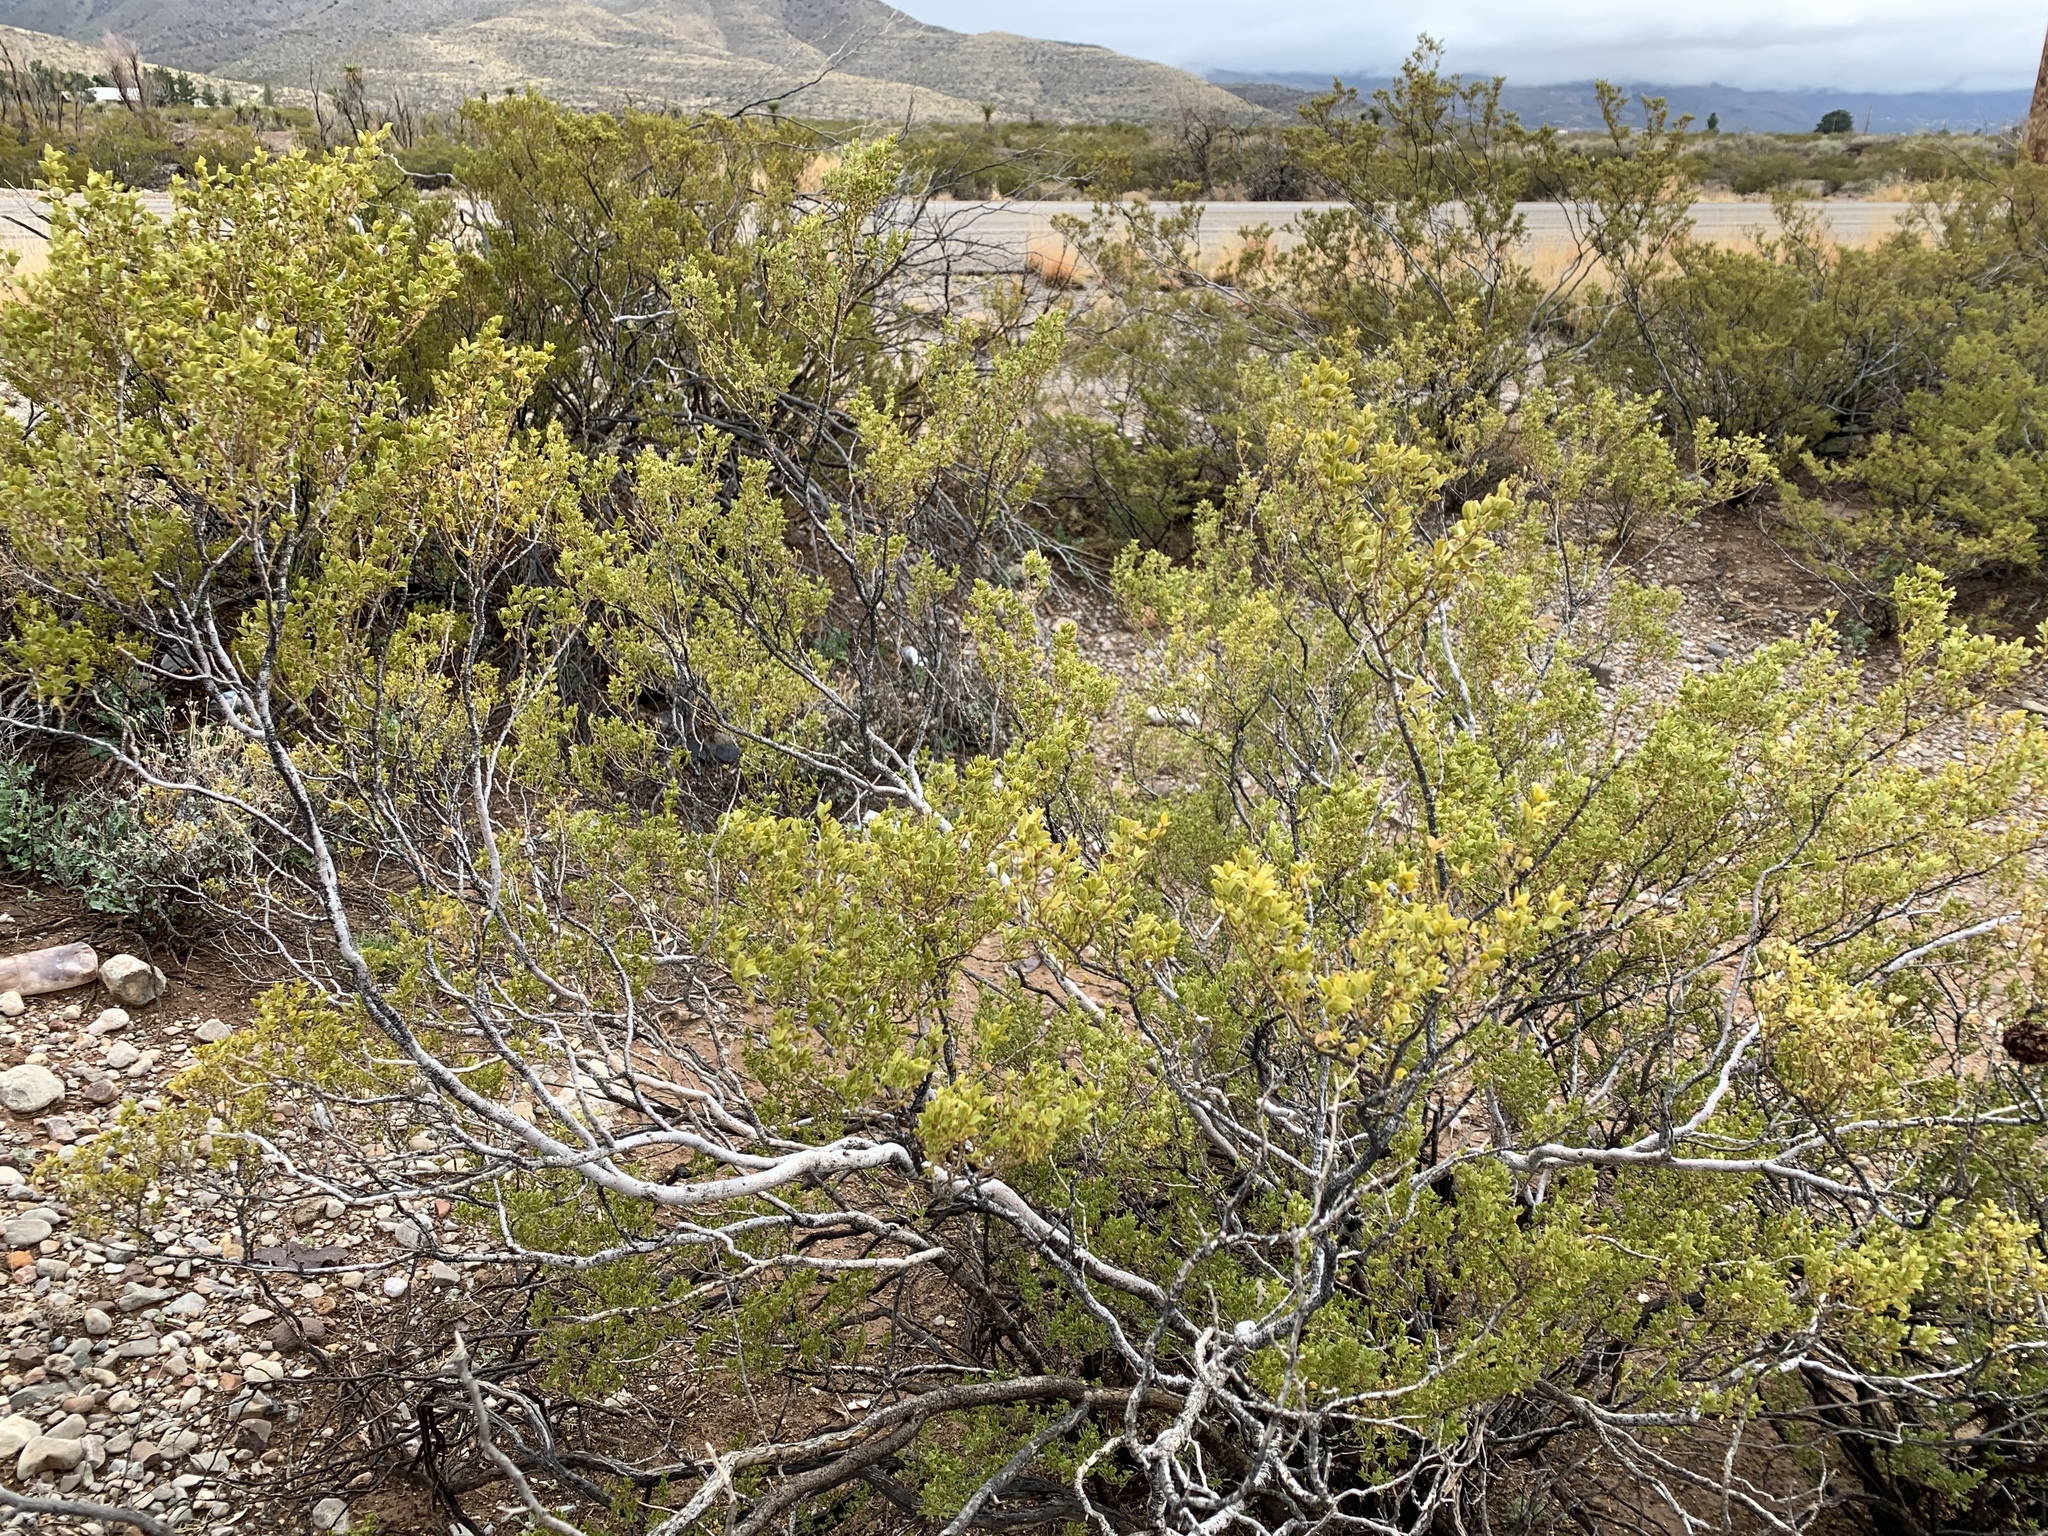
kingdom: Plantae
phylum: Tracheophyta
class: Magnoliopsida
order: Zygophyllales
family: Zygophyllaceae
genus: Larrea
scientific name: Larrea tridentata
